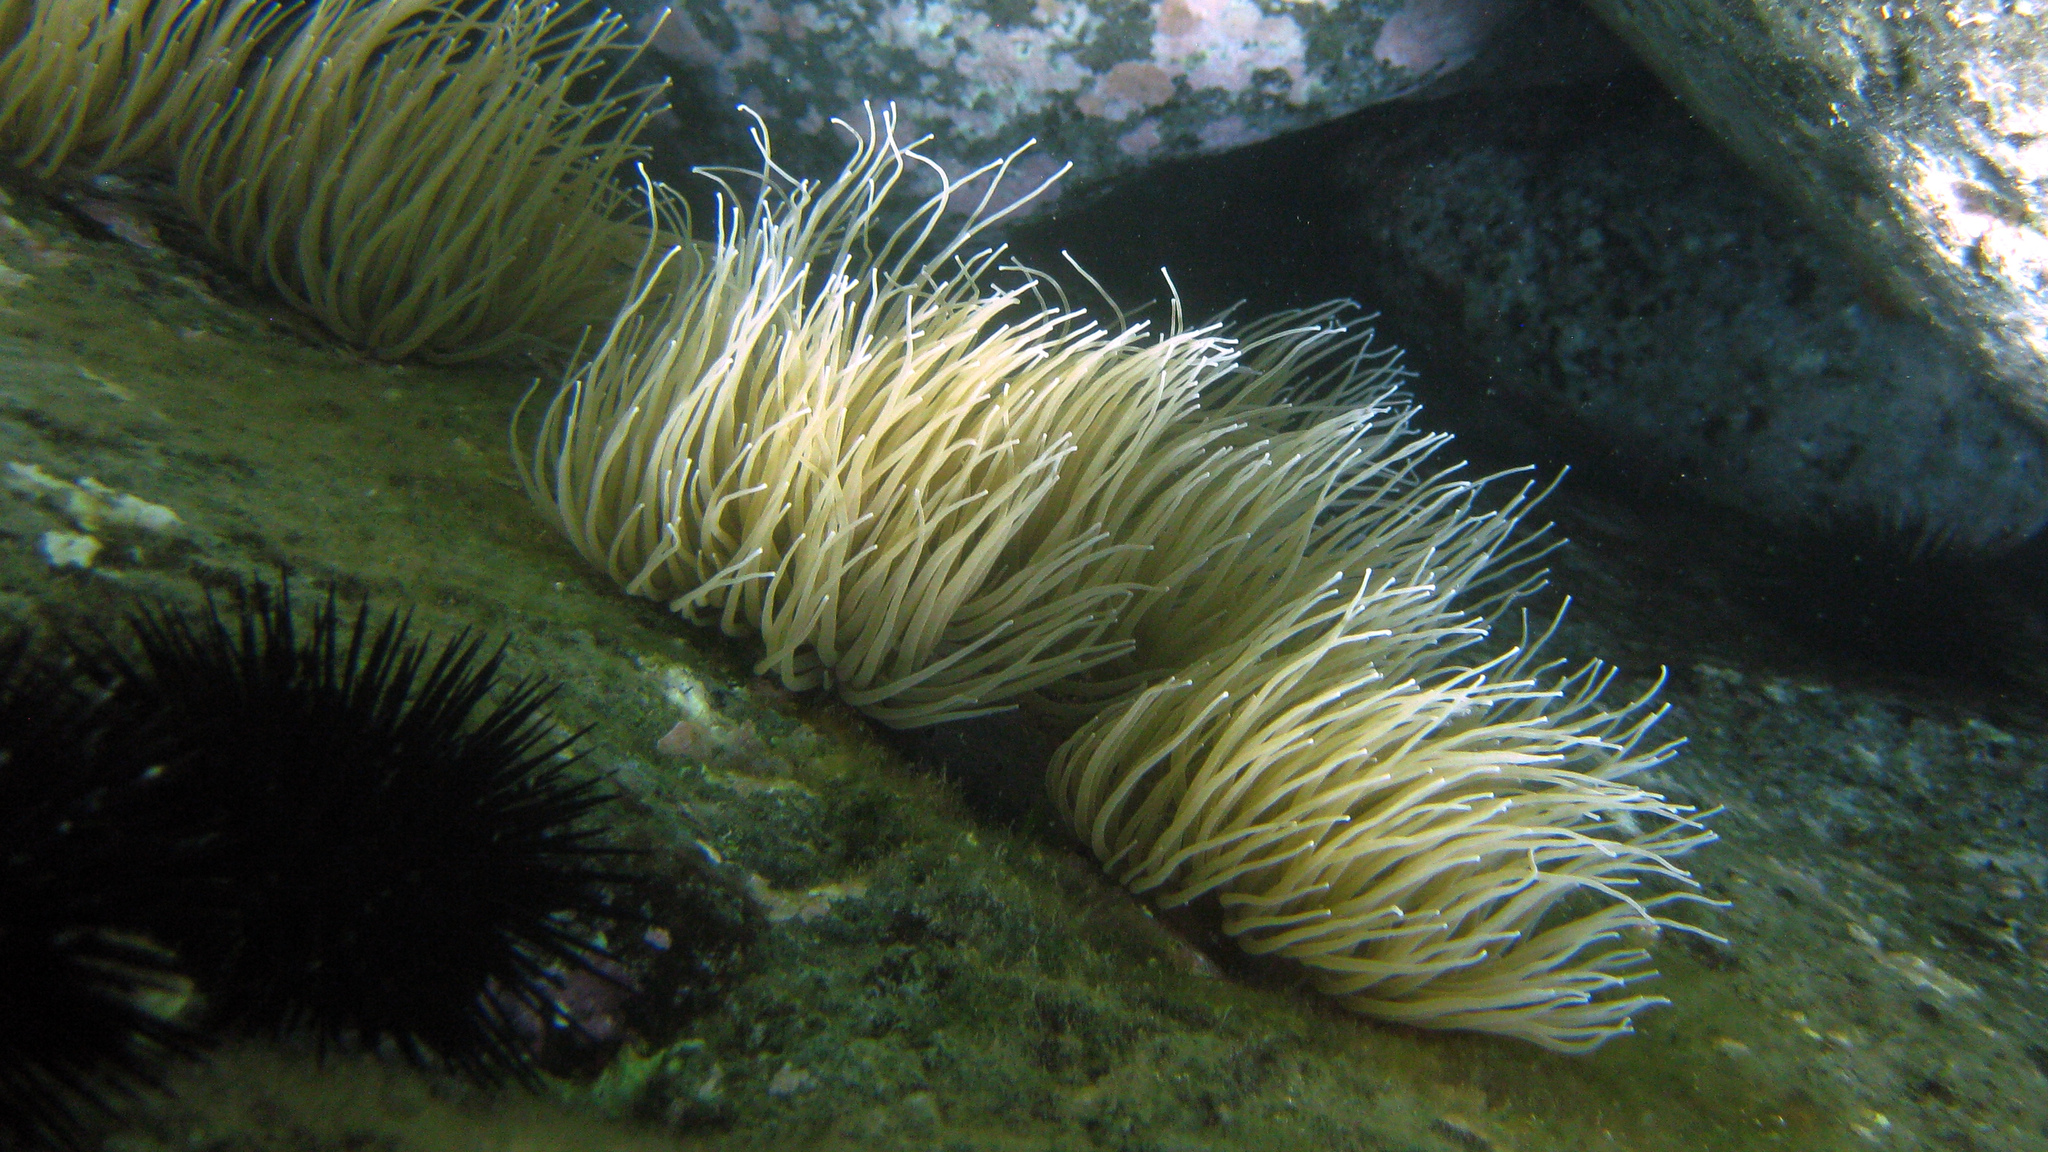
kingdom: Animalia
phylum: Cnidaria
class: Anthozoa
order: Actiniaria
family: Actiniidae
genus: Anemonia
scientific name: Anemonia viridis
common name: Snakelocks anemone
